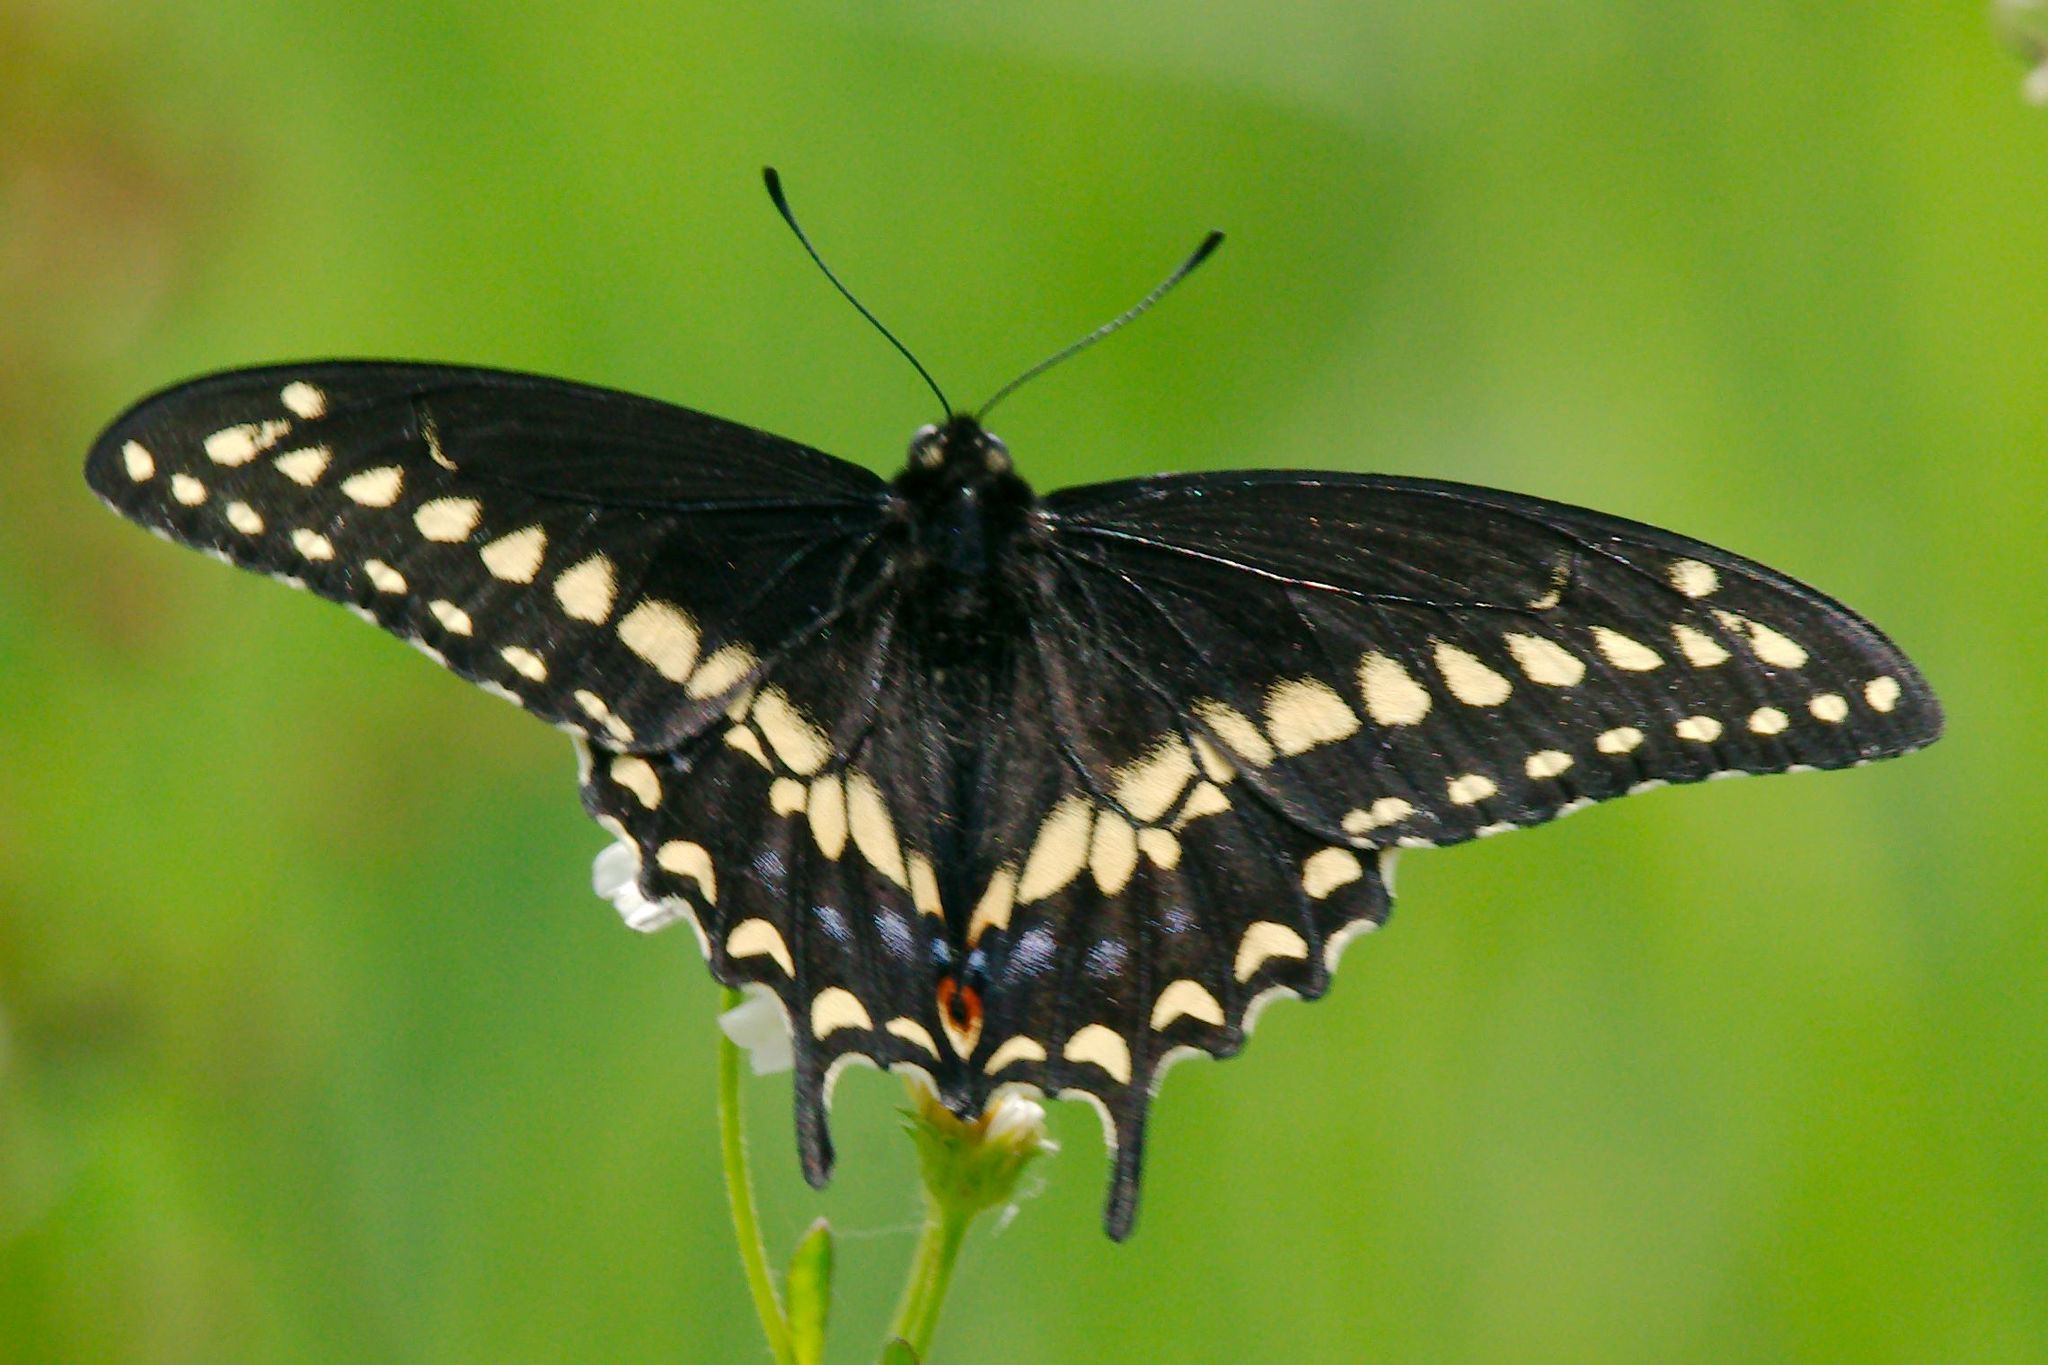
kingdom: Animalia
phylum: Arthropoda
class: Insecta
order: Lepidoptera
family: Papilionidae
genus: Papilio
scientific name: Papilio polyxenes
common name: Black swallowtail
